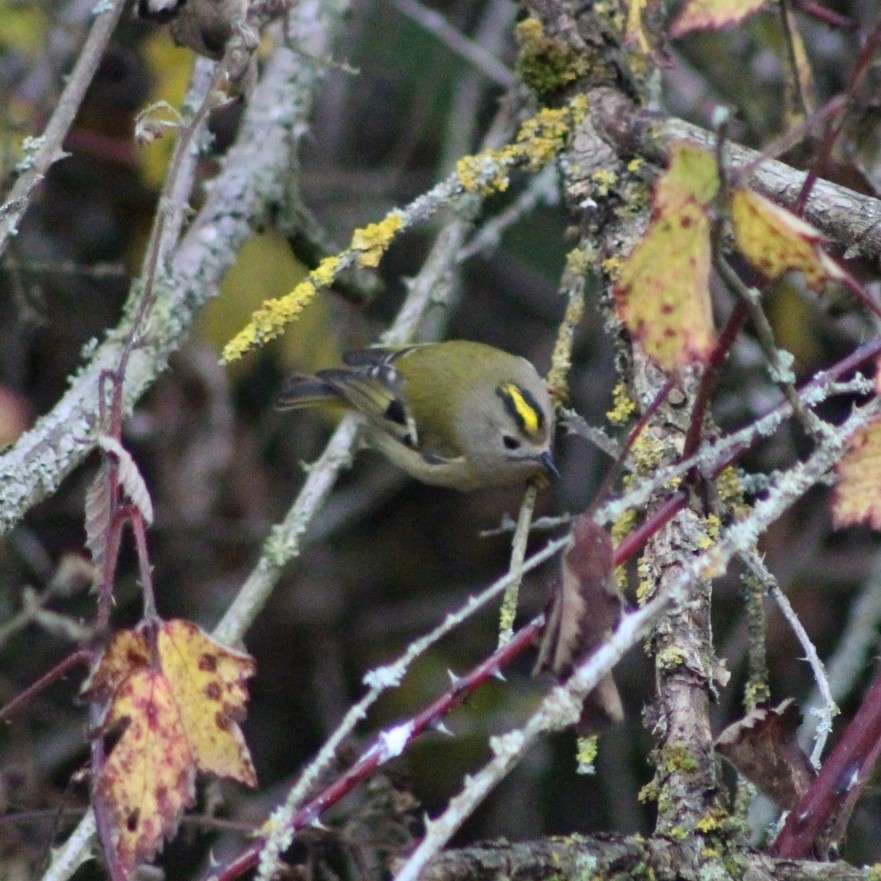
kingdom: Animalia
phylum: Chordata
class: Aves
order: Passeriformes
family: Regulidae
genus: Regulus
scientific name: Regulus regulus
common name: Goldcrest
